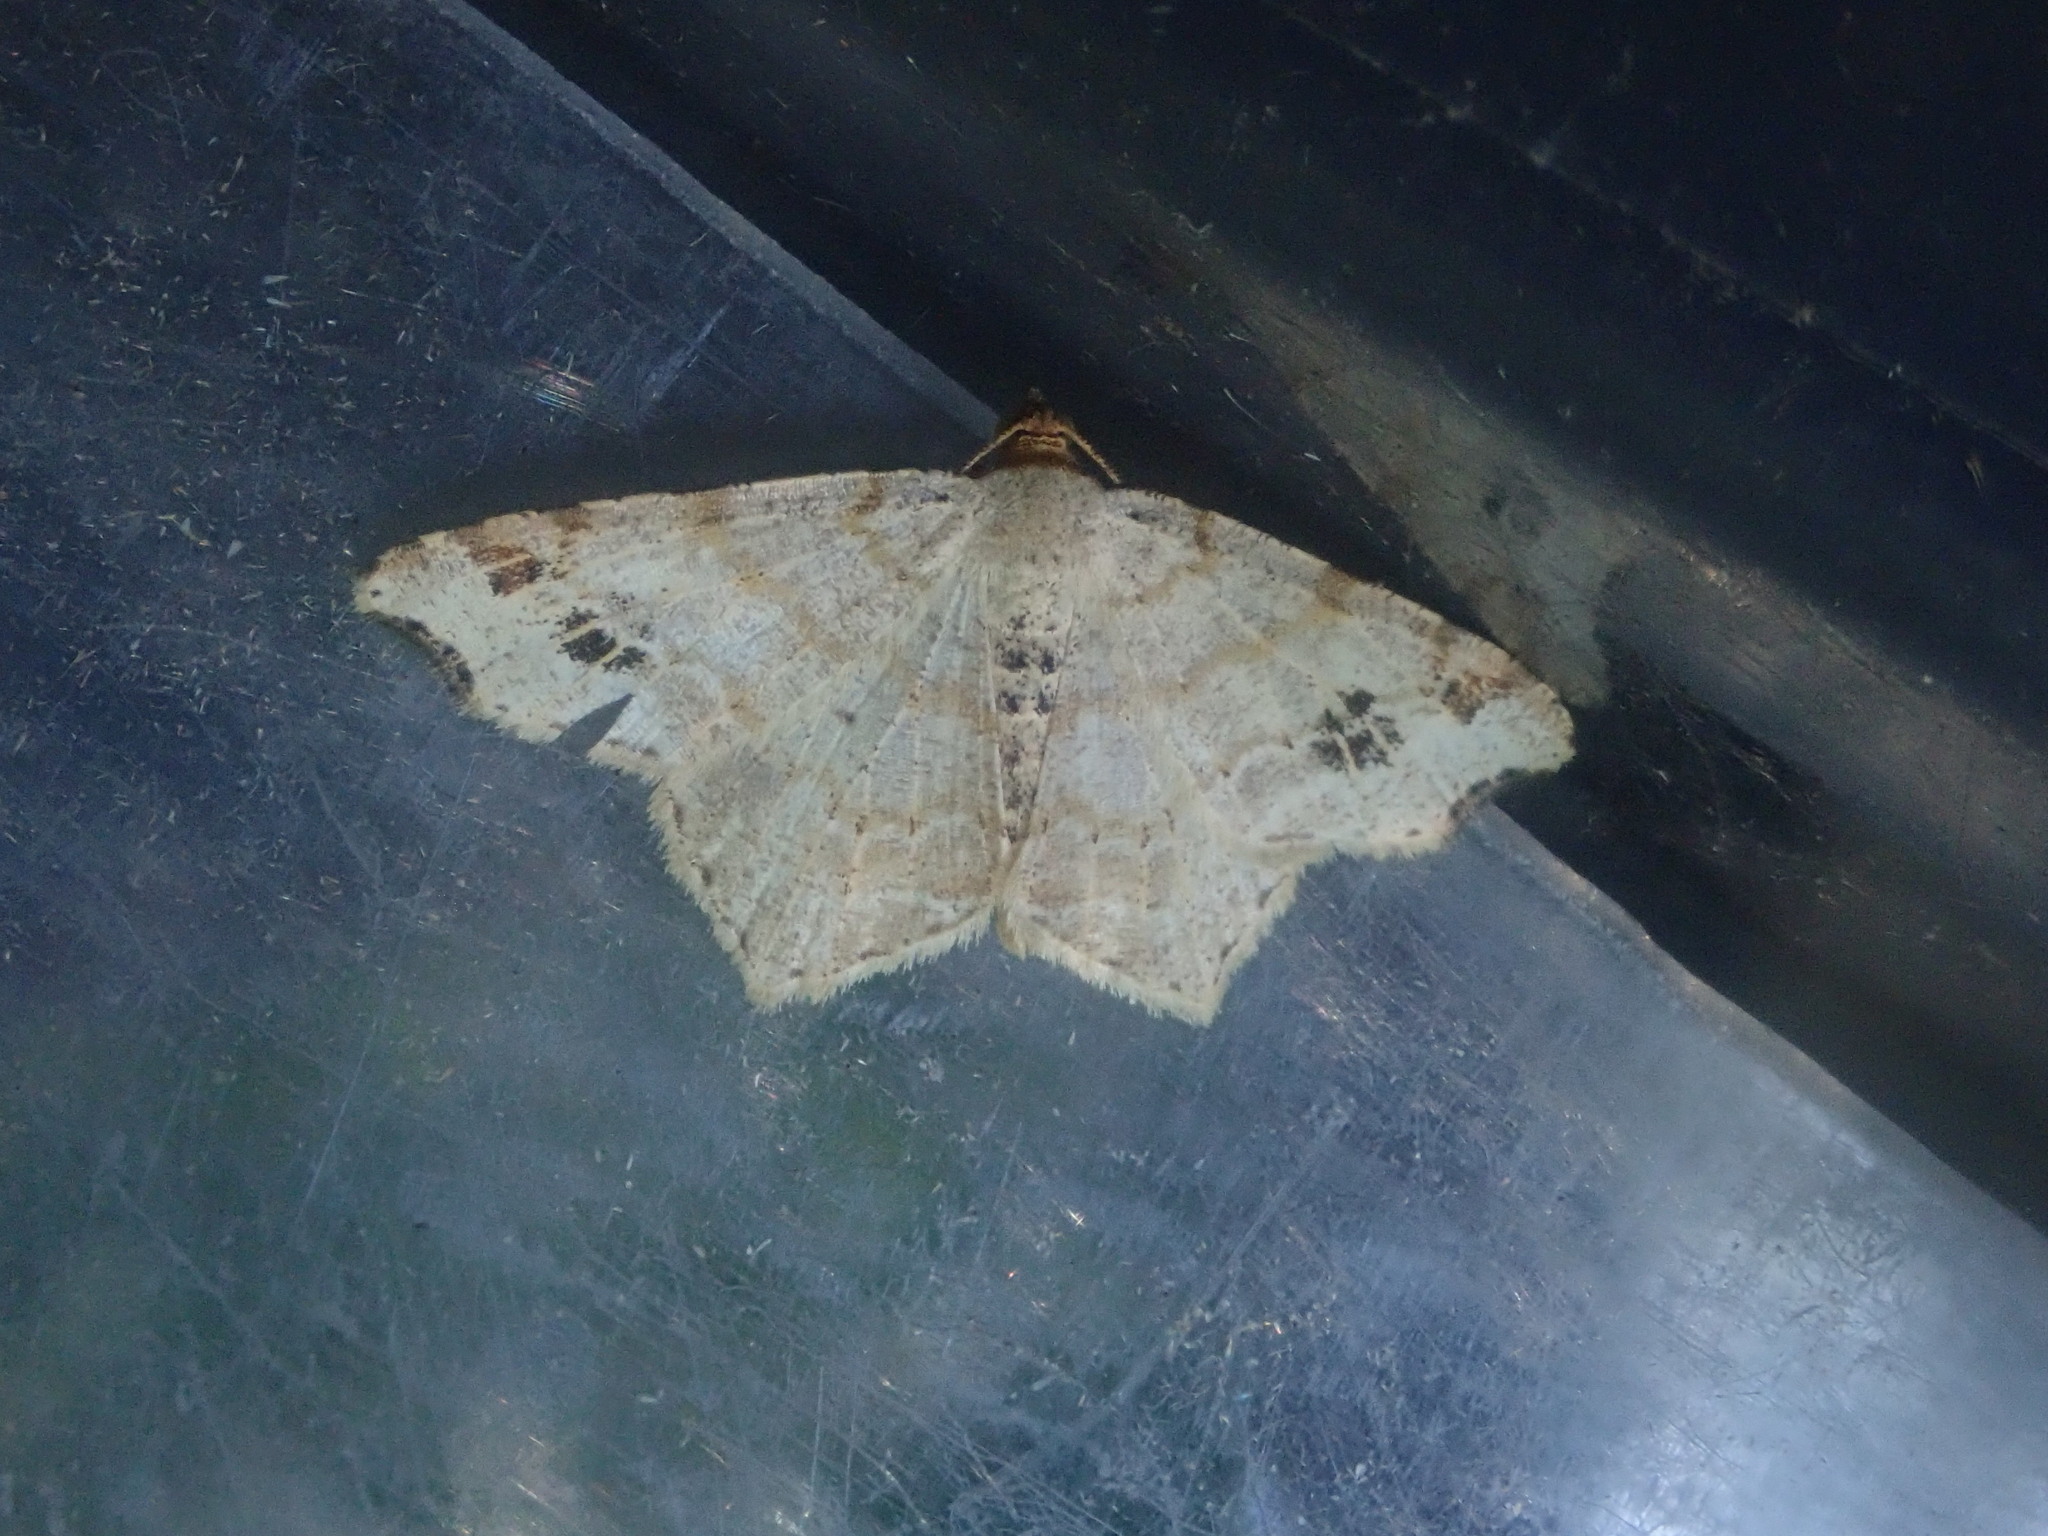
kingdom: Animalia
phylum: Arthropoda
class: Insecta
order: Lepidoptera
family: Geometridae
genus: Macaria
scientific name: Macaria aemulataria
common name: Common angle
